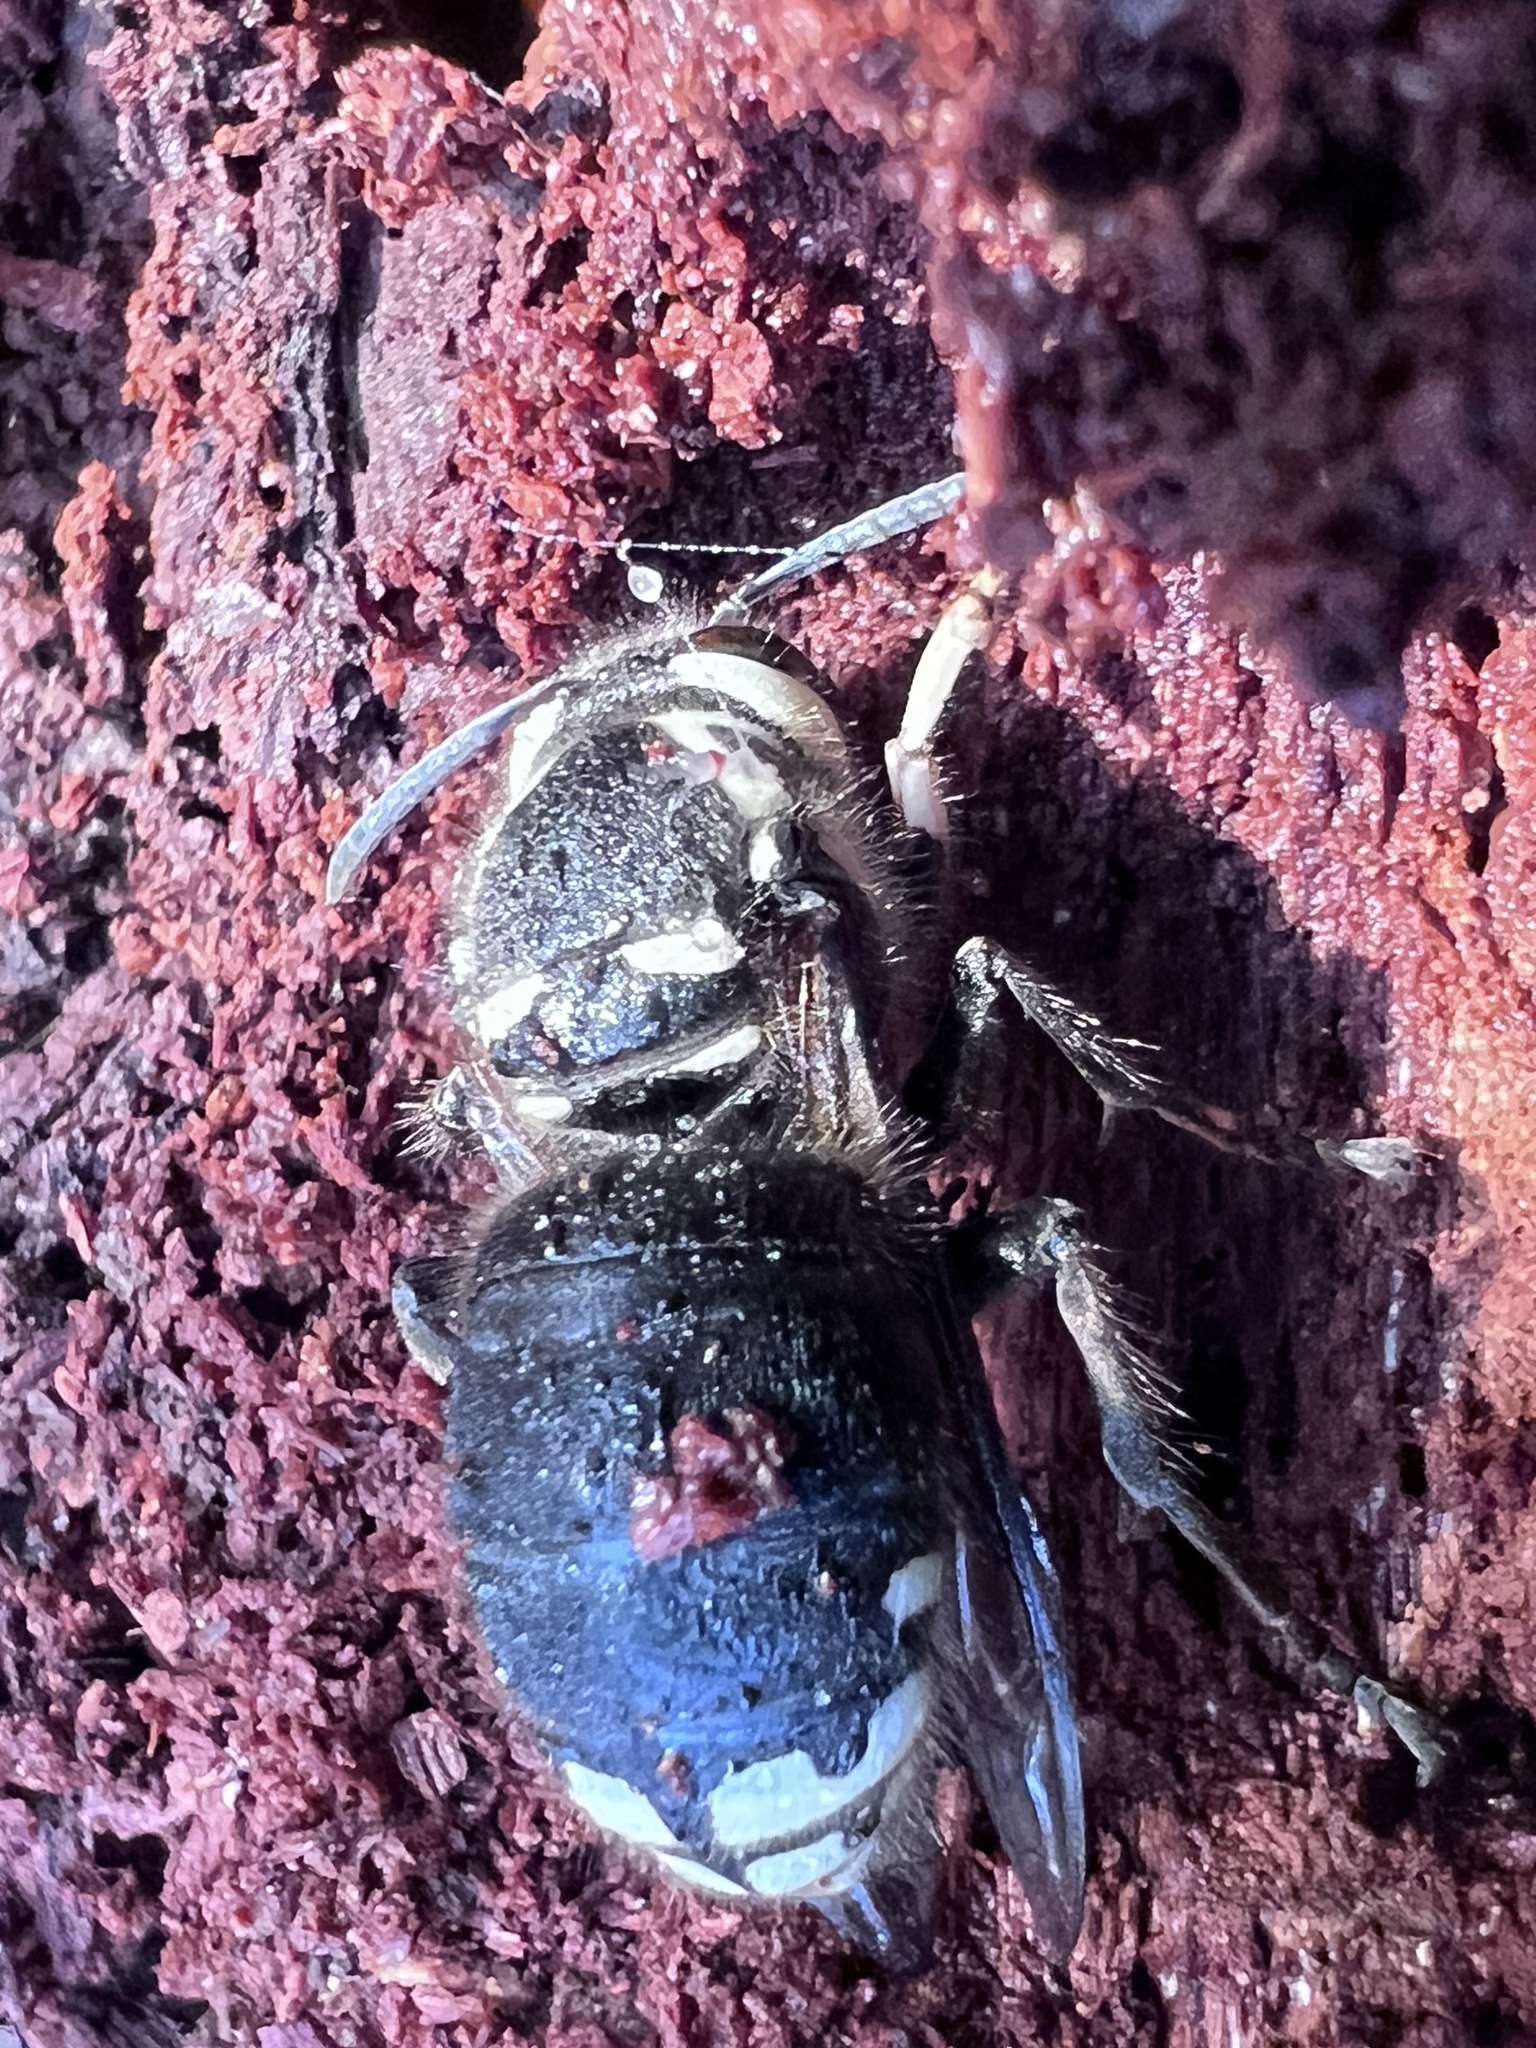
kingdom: Animalia
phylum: Arthropoda
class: Insecta
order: Hymenoptera
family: Vespidae
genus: Dolichovespula
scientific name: Dolichovespula maculata
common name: Bald-faced hornet
